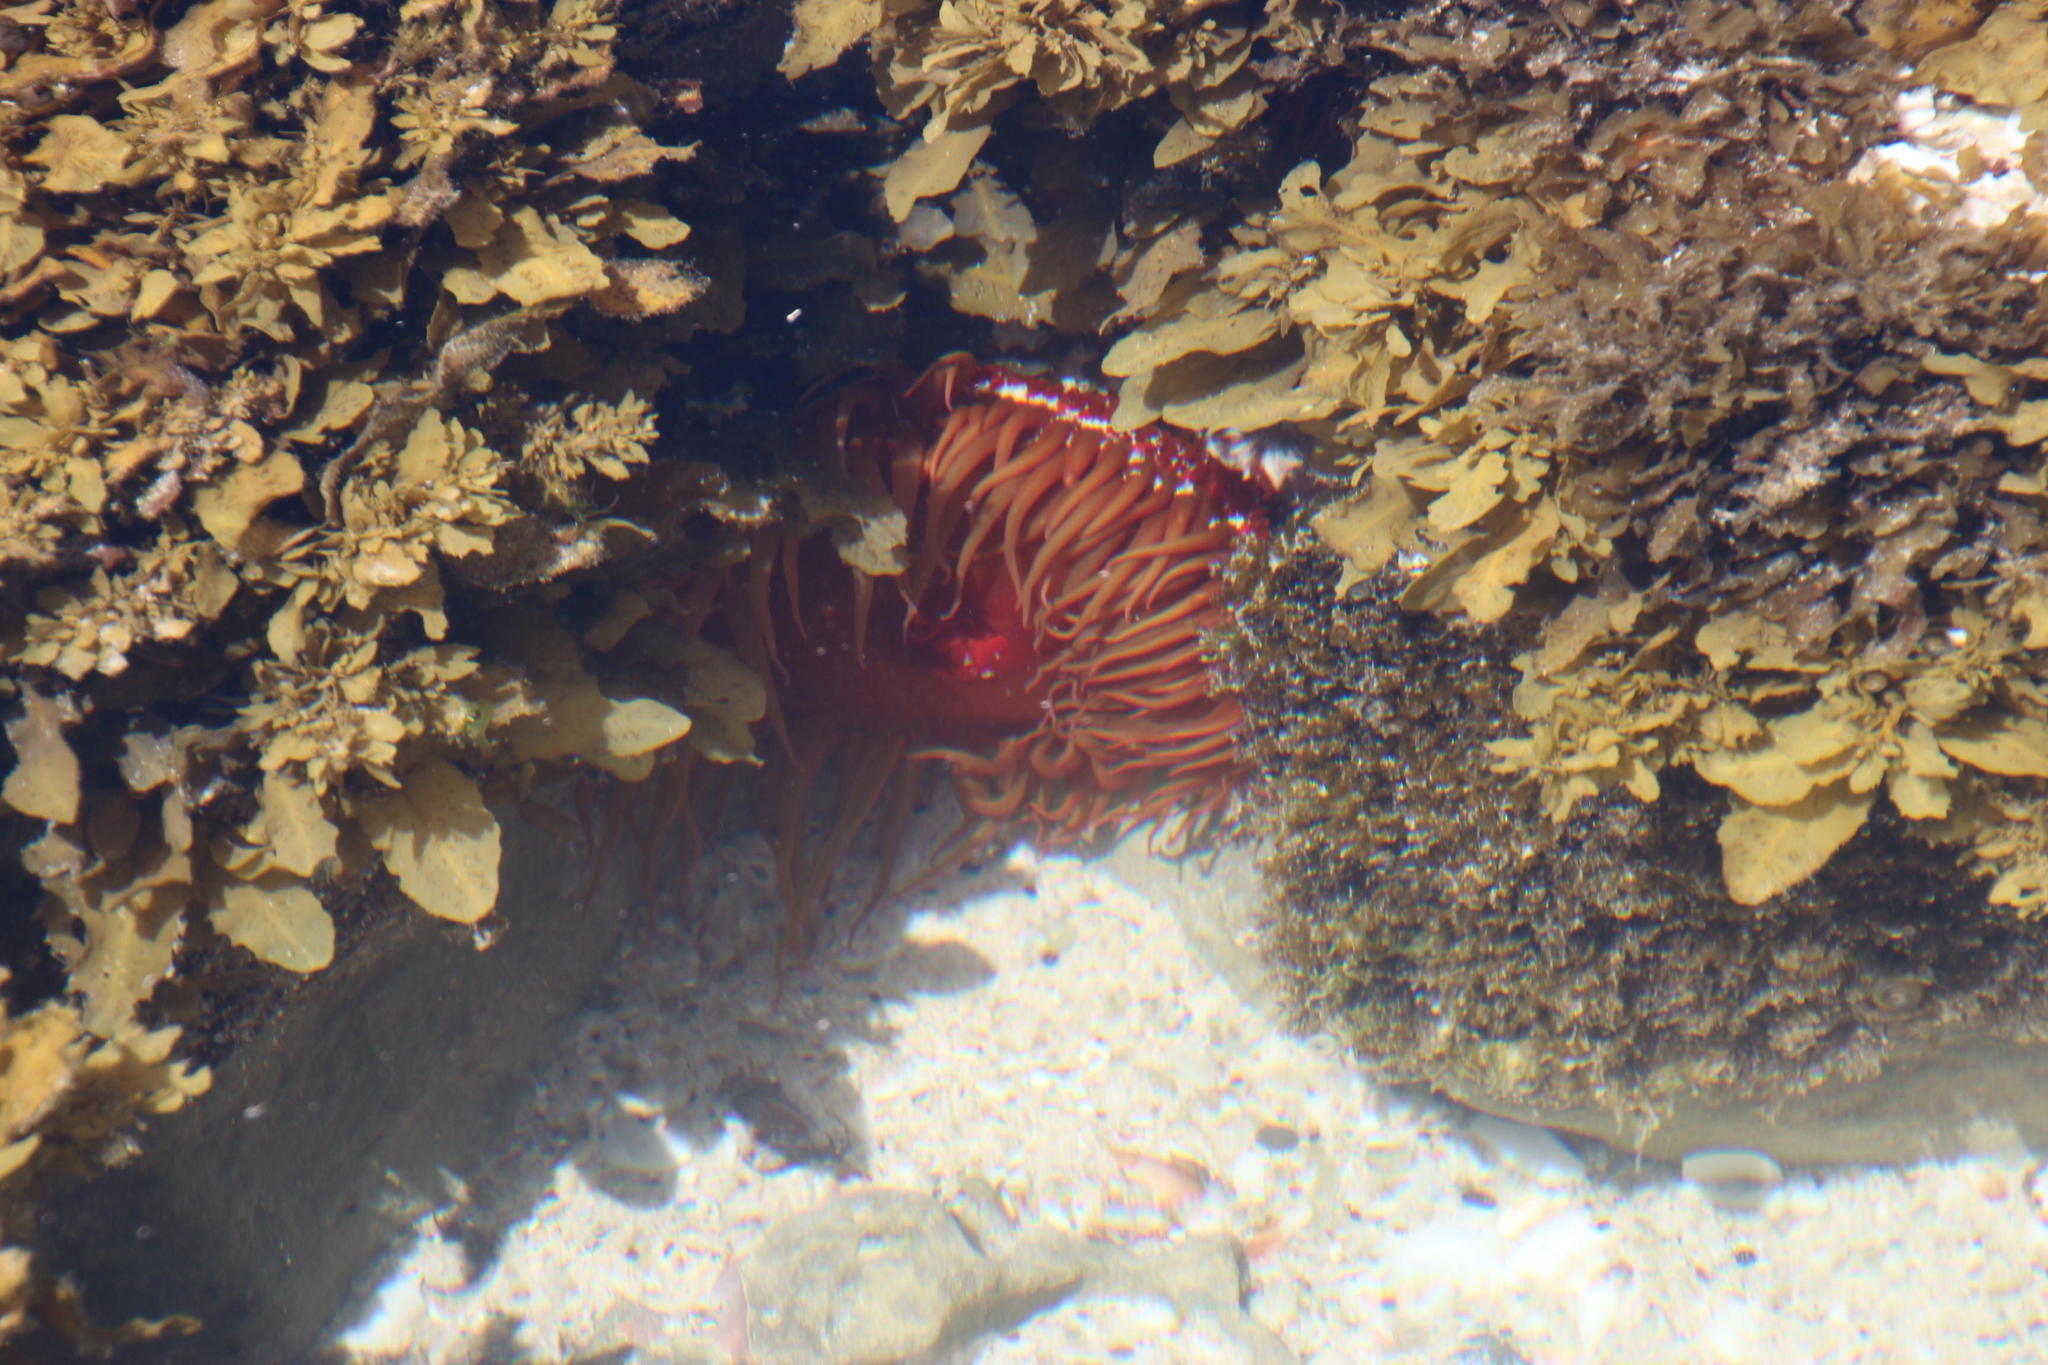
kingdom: Animalia
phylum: Cnidaria
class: Anthozoa
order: Actiniaria
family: Actiniidae
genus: Pseudactinia
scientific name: Pseudactinia flagellifera
